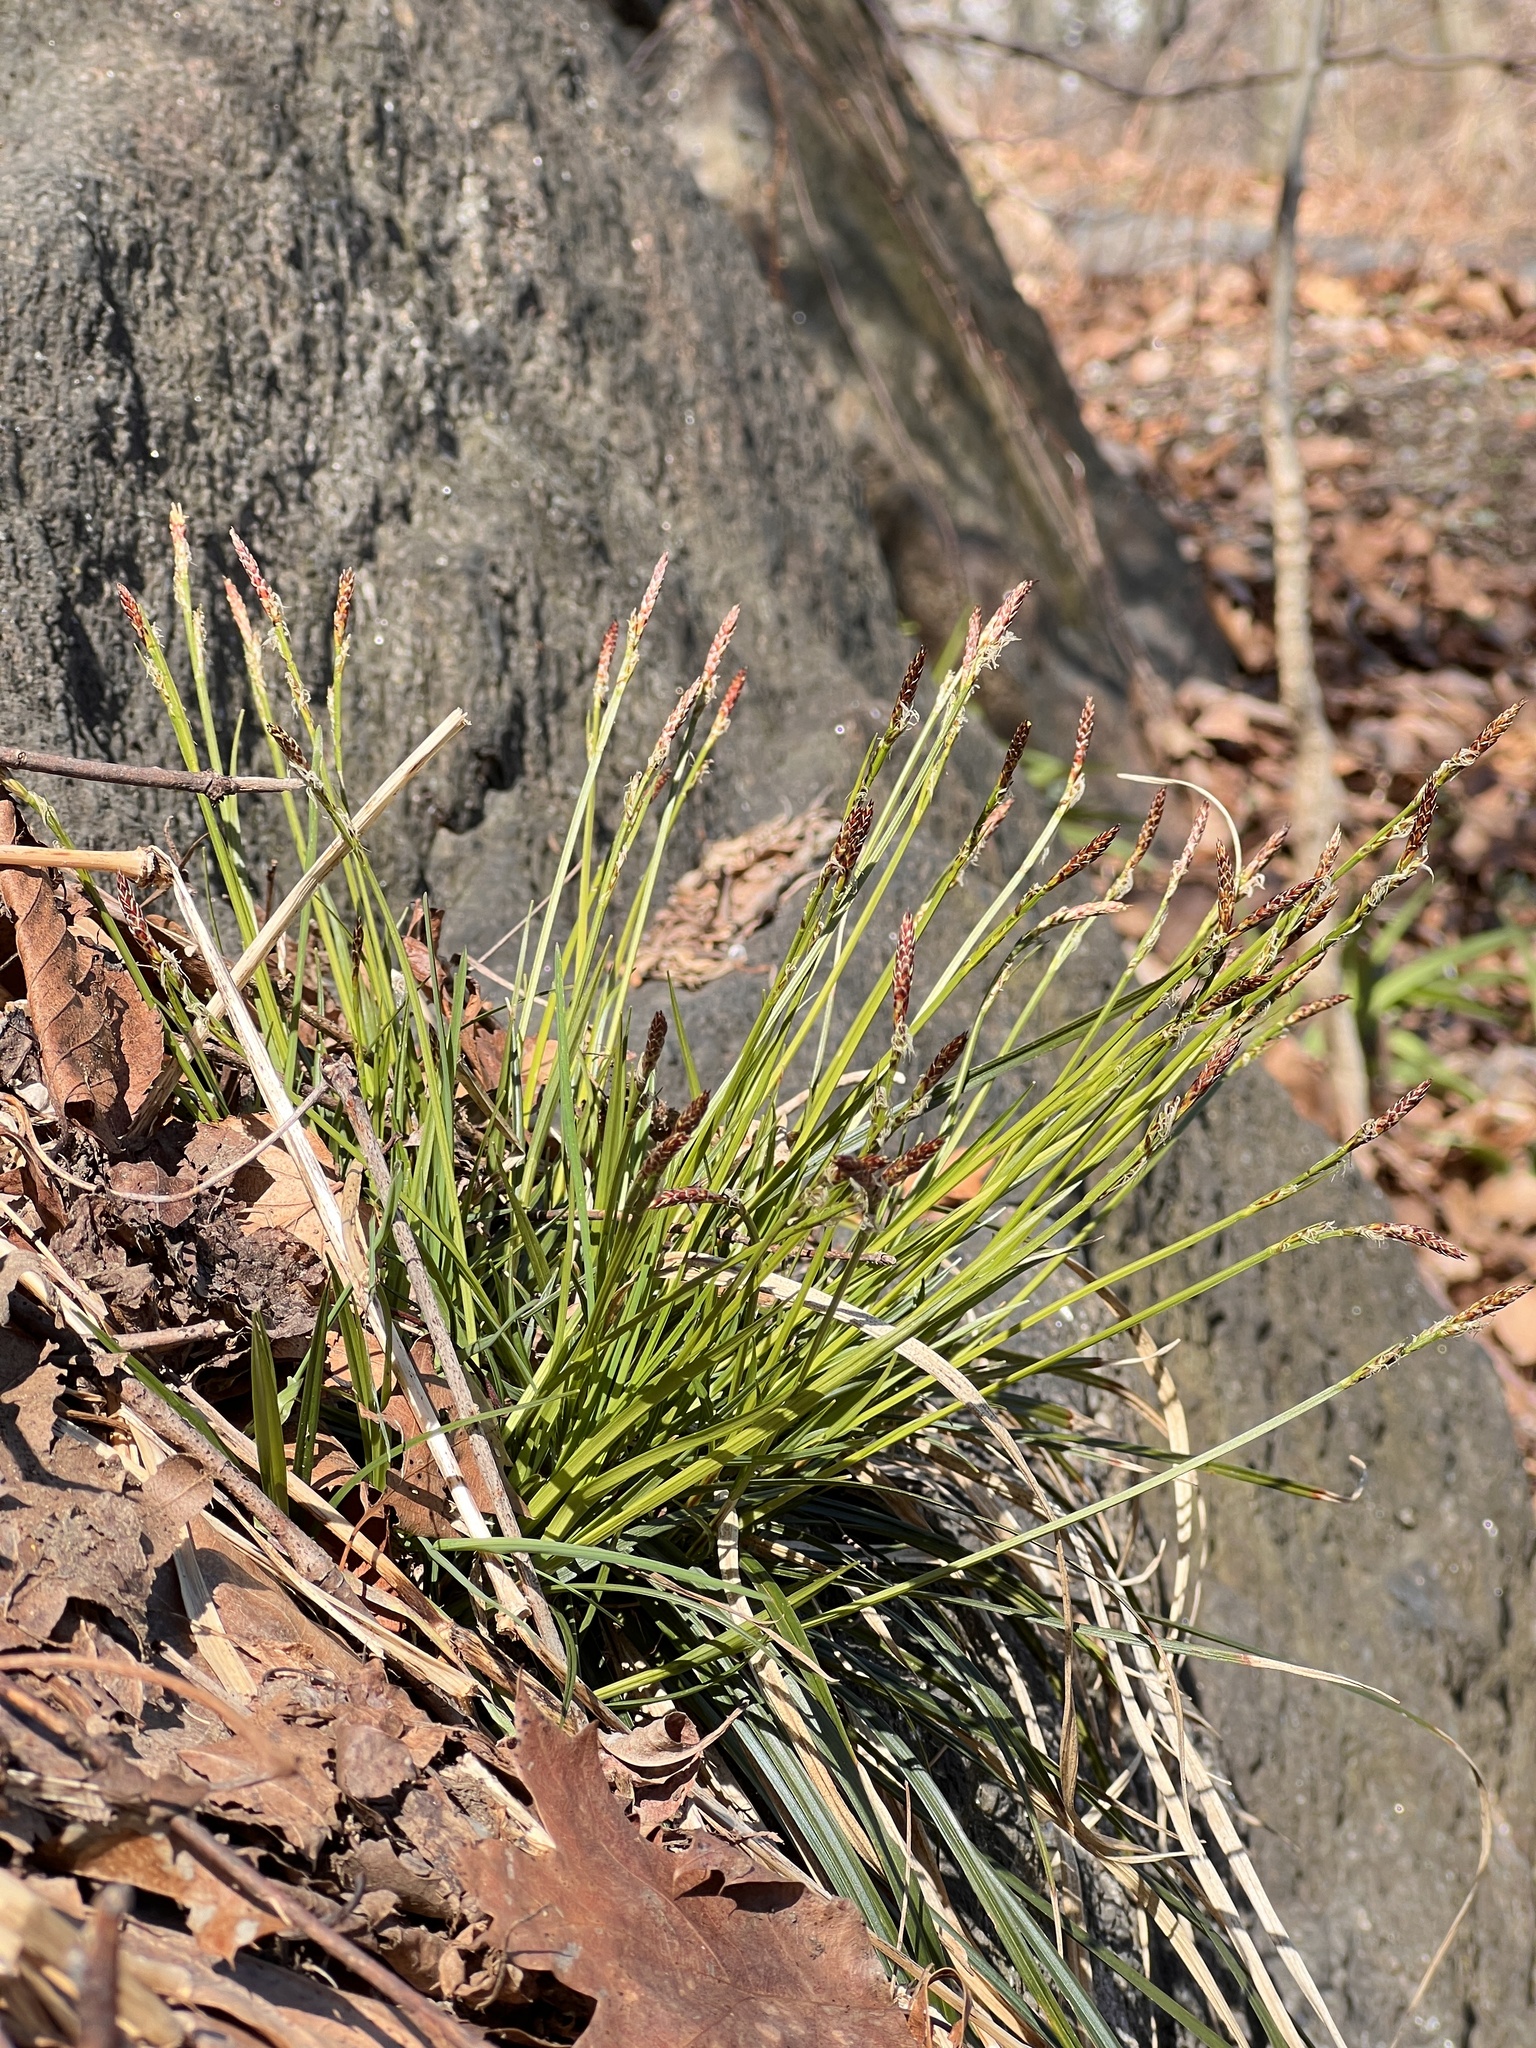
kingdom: Plantae
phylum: Tracheophyta
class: Liliopsida
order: Poales
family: Cyperaceae
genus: Carex
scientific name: Carex communis
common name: Colonial oak sedge
